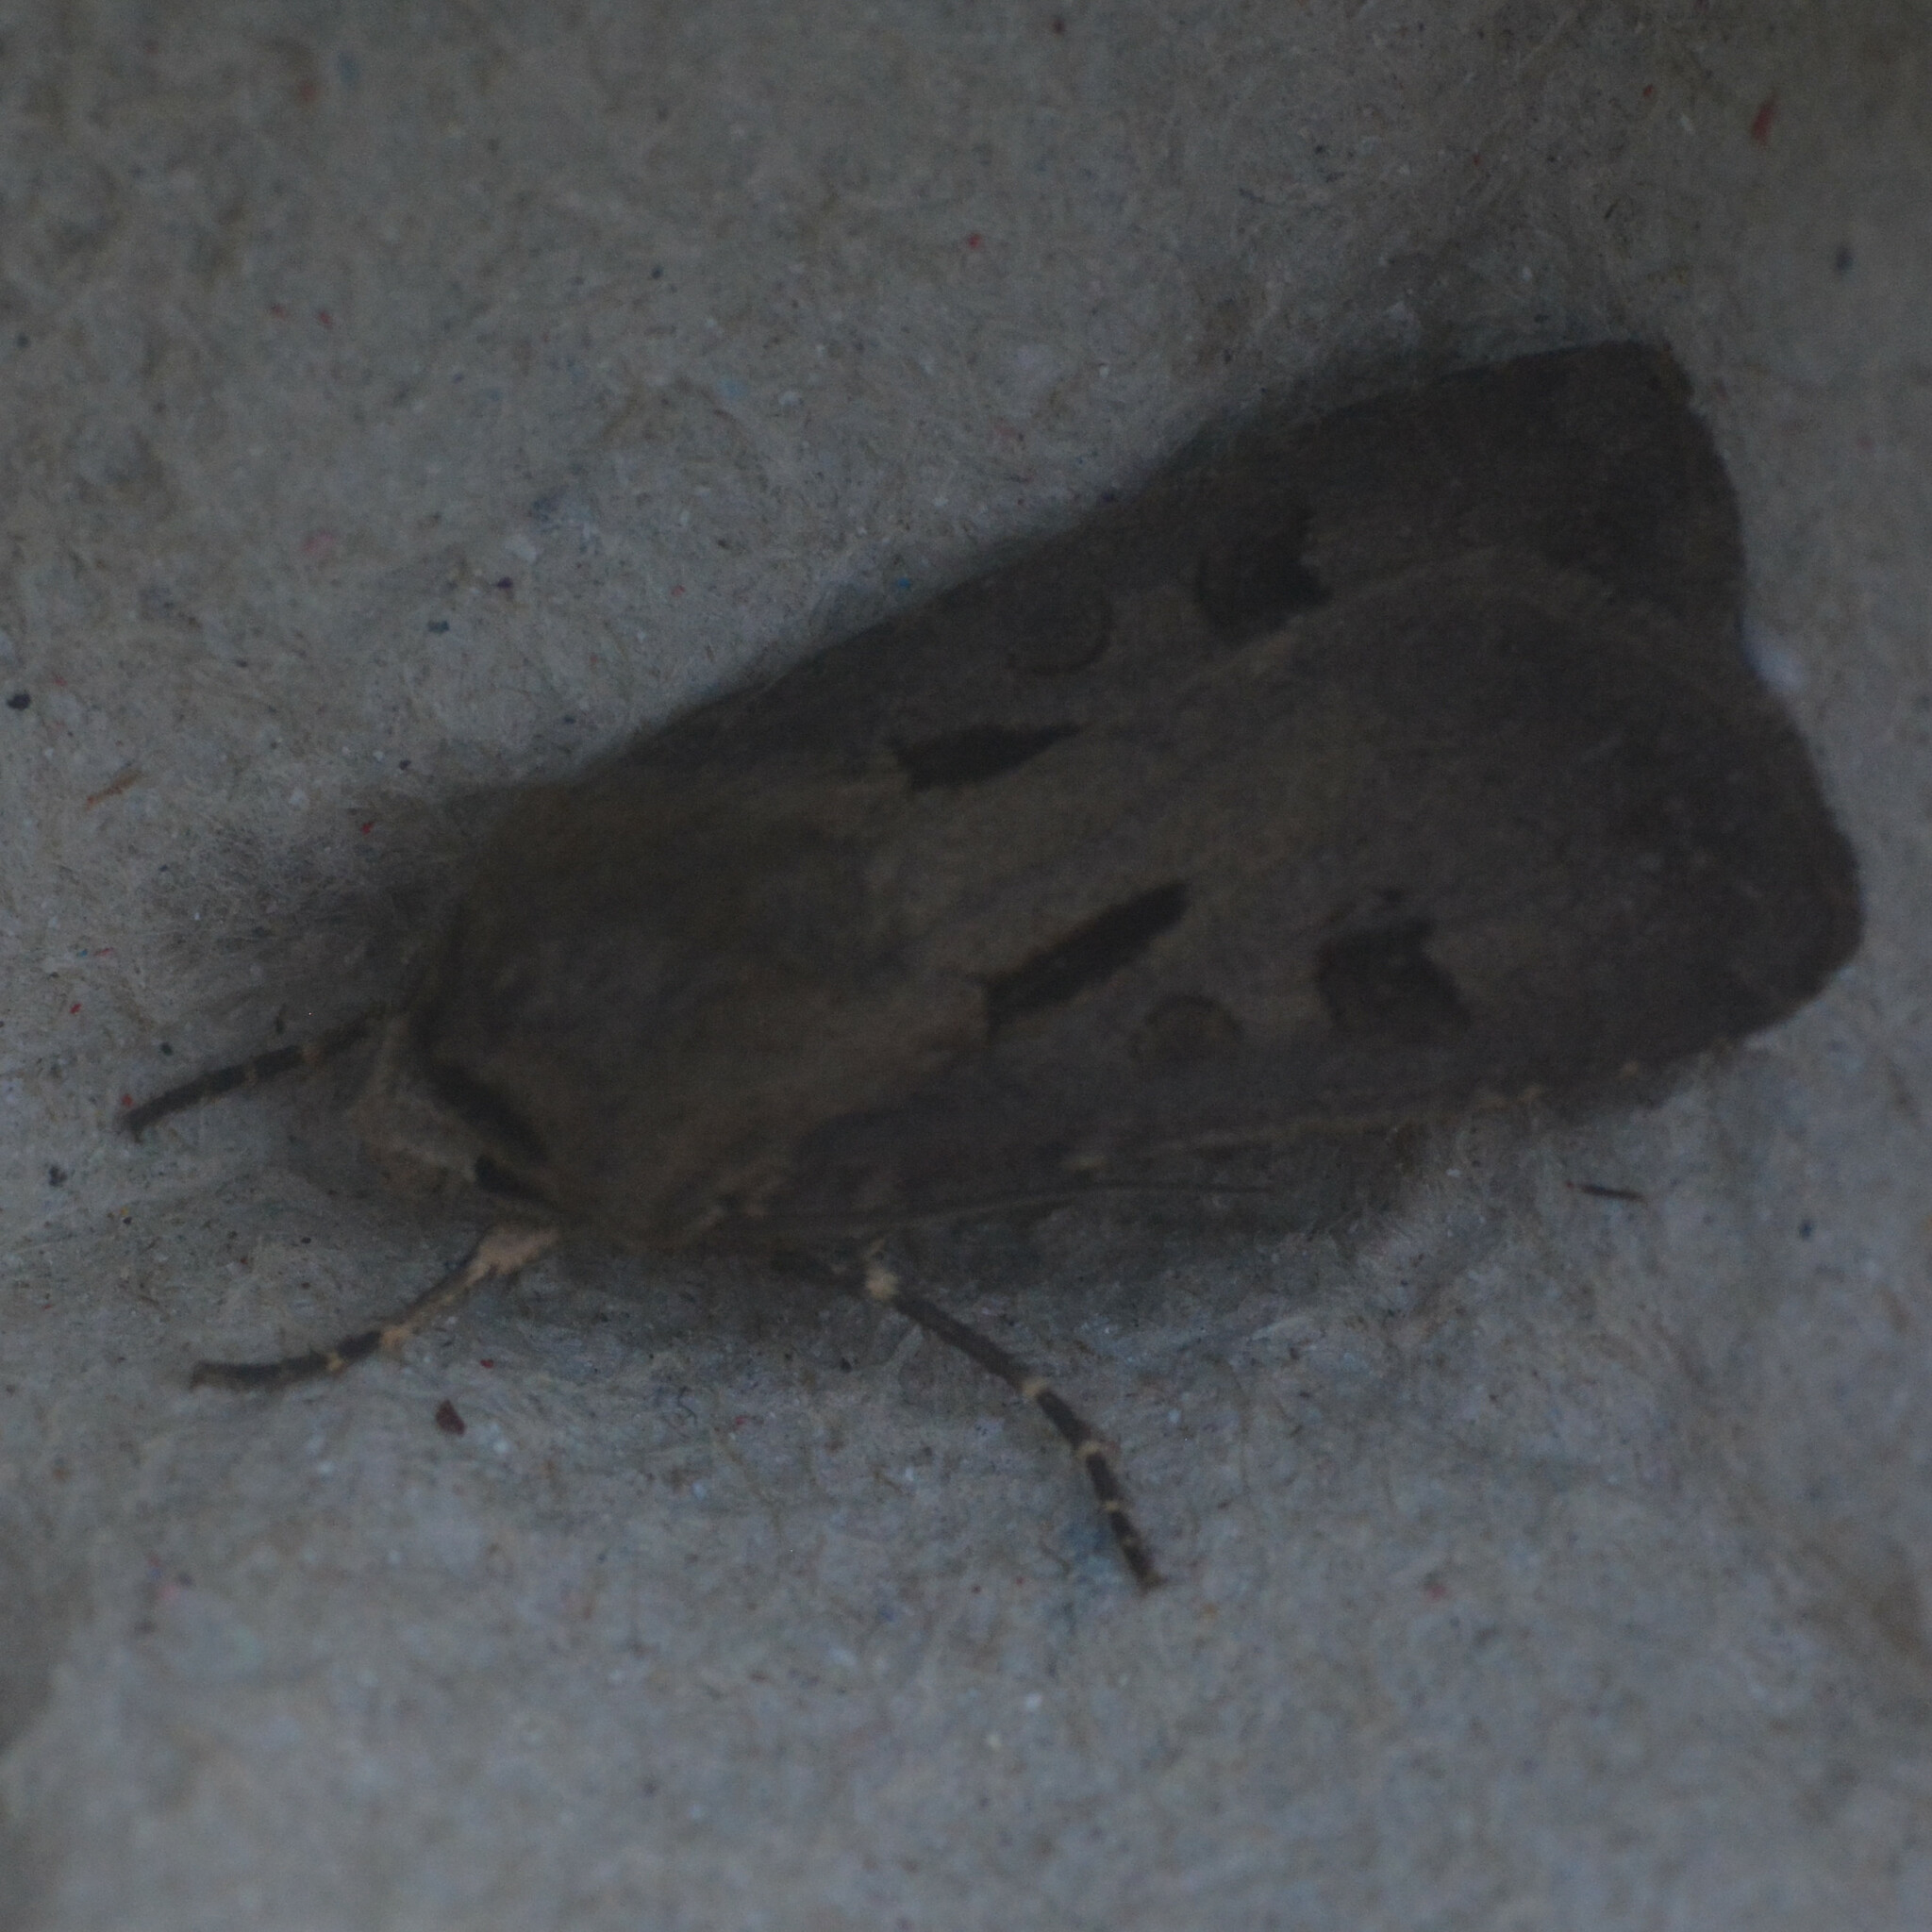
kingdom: Animalia
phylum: Arthropoda
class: Insecta
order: Lepidoptera
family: Noctuidae
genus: Agrotis
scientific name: Agrotis exclamationis
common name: Heart and dart
